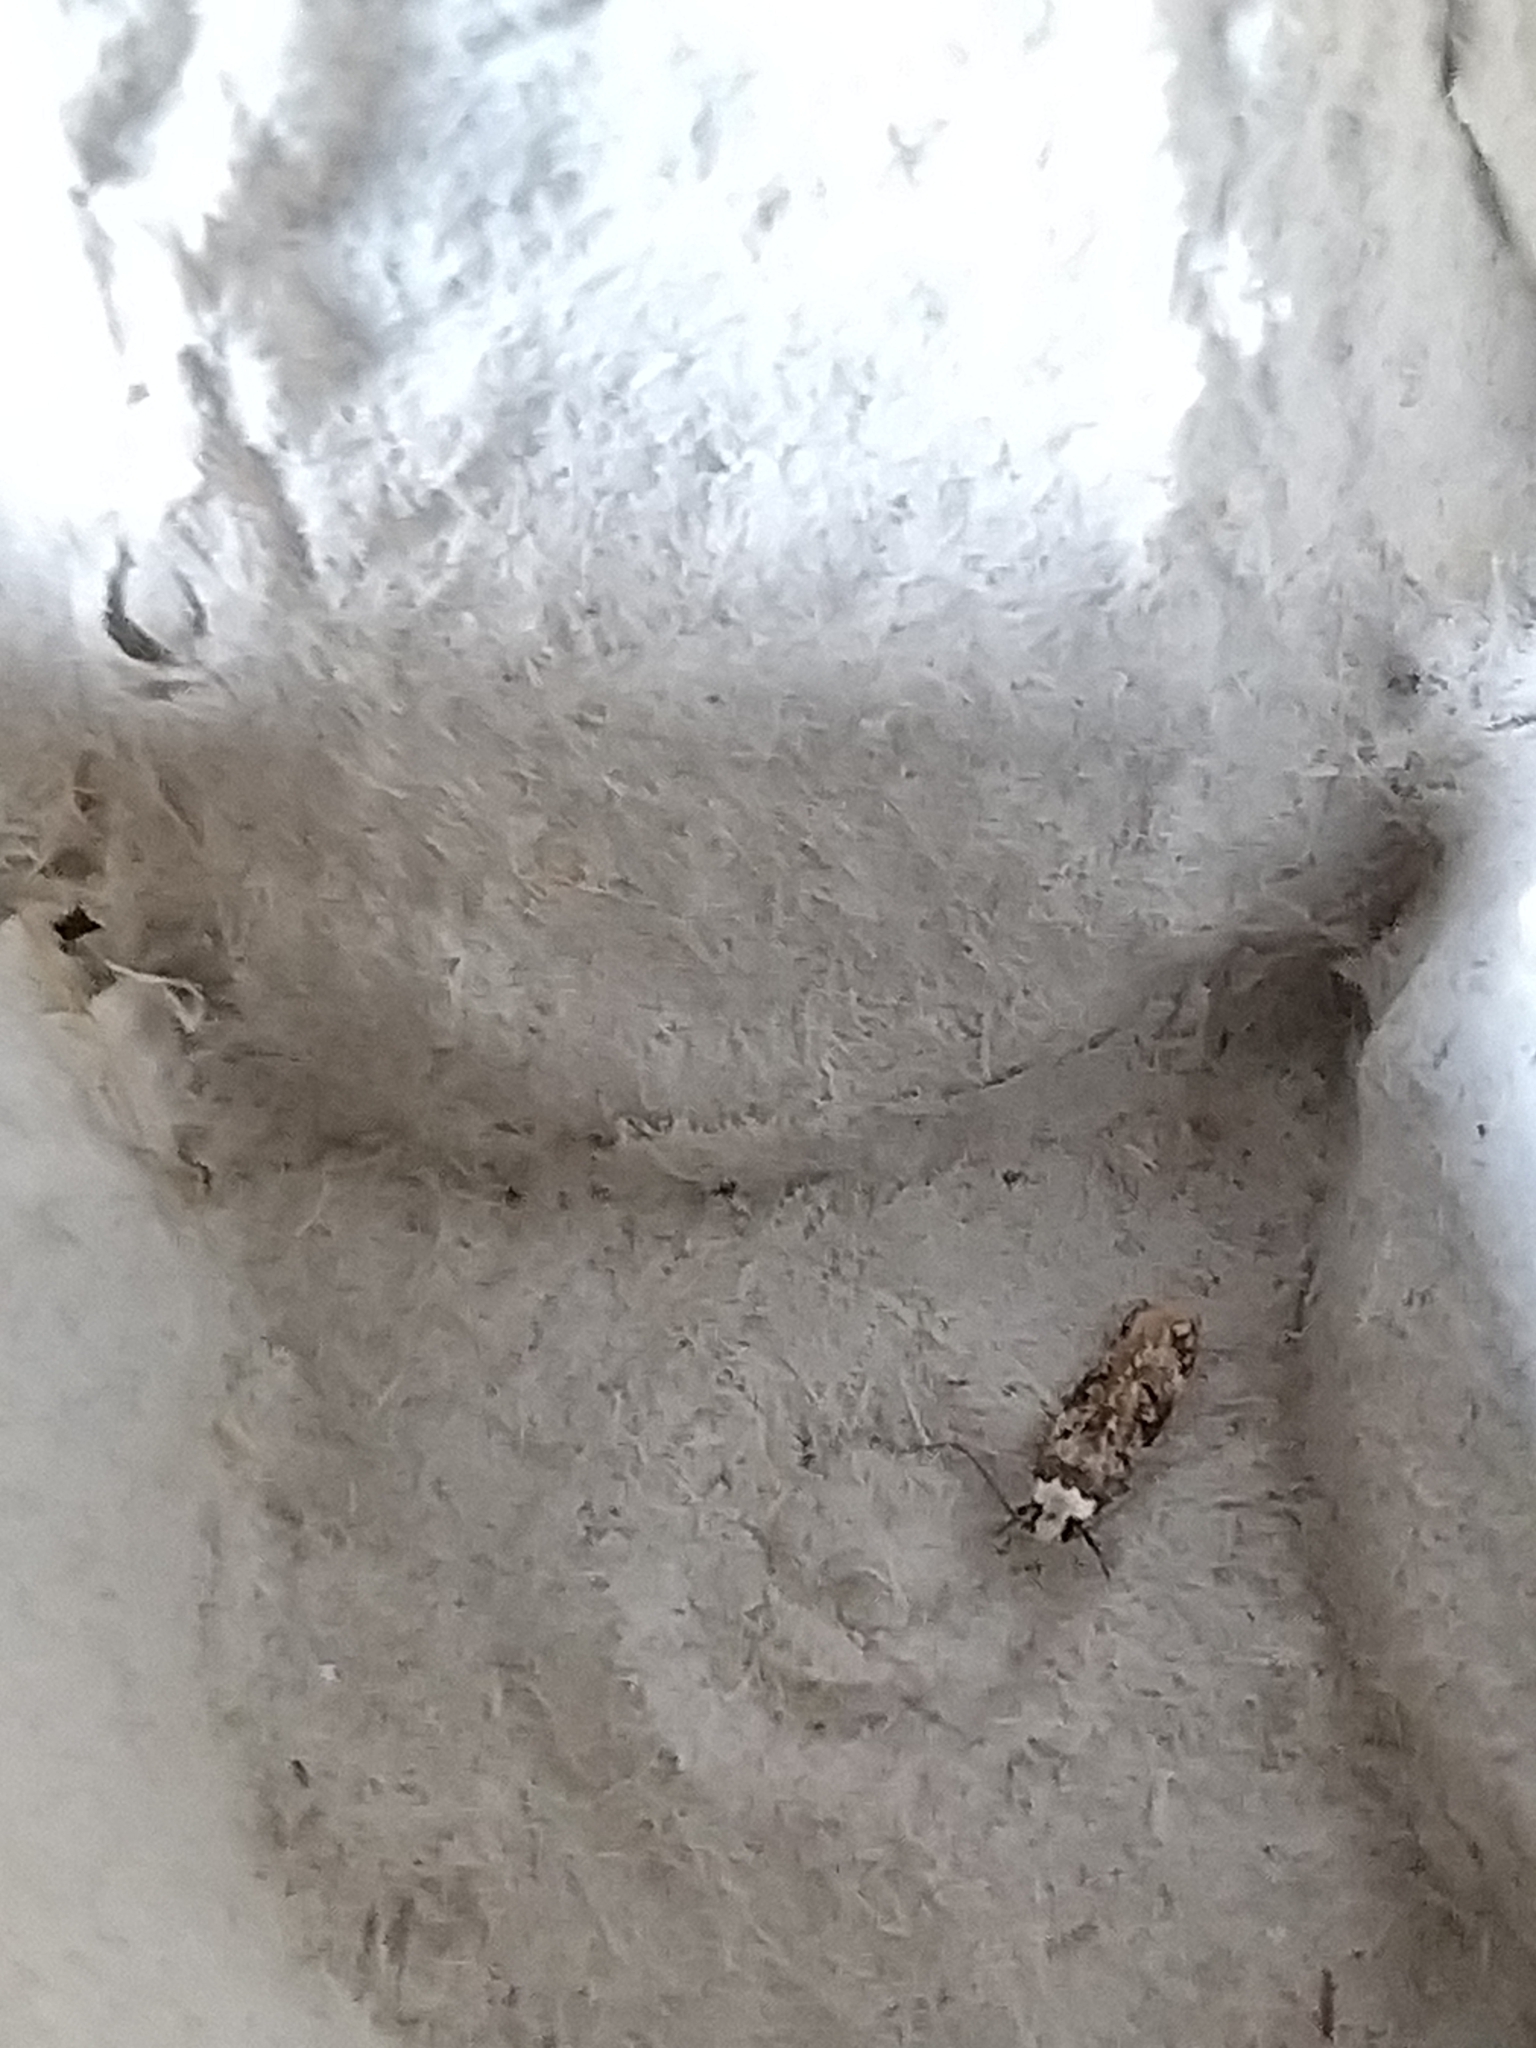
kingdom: Animalia
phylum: Arthropoda
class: Insecta
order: Lepidoptera
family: Oecophoridae
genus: Endrosis
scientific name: Endrosis sarcitrella
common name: White-shouldered house moth
